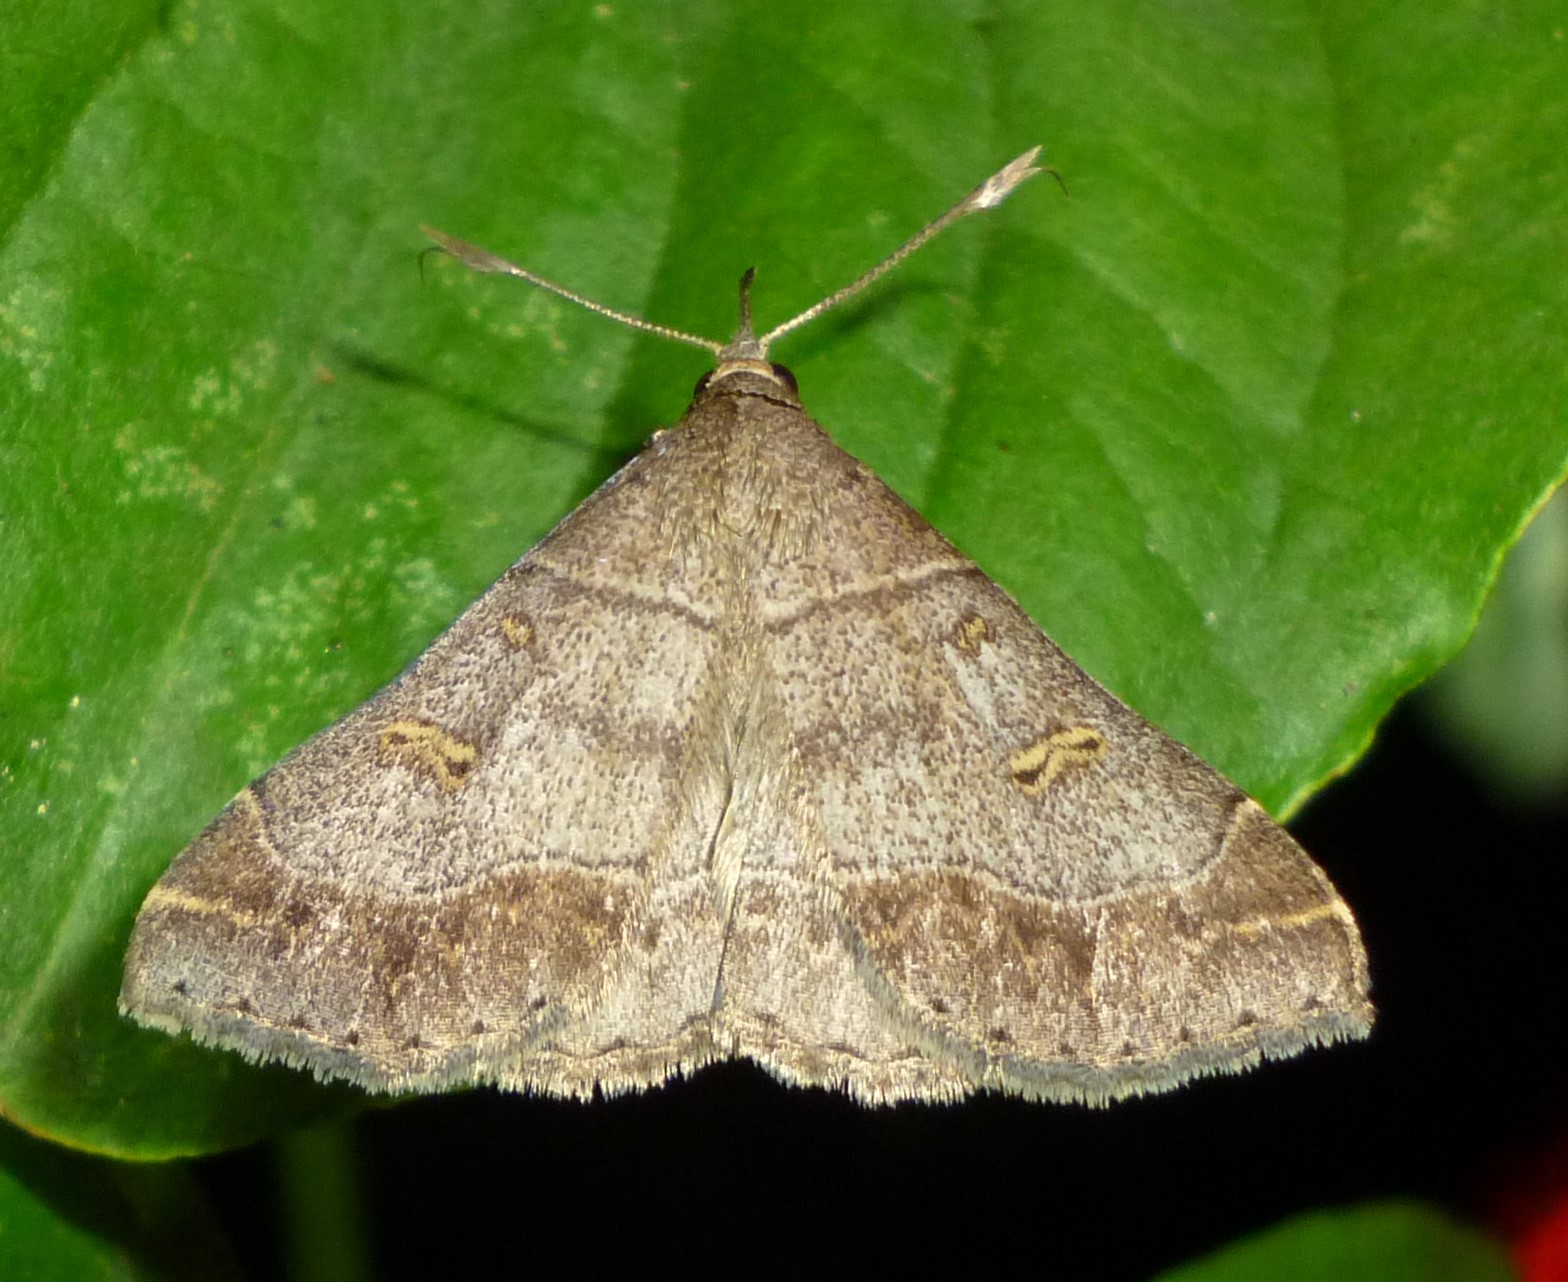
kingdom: Animalia
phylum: Arthropoda
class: Insecta
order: Lepidoptera
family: Erebidae
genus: Renia
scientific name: Renia flavipunctalis
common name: Yellow-spotted renia moth
